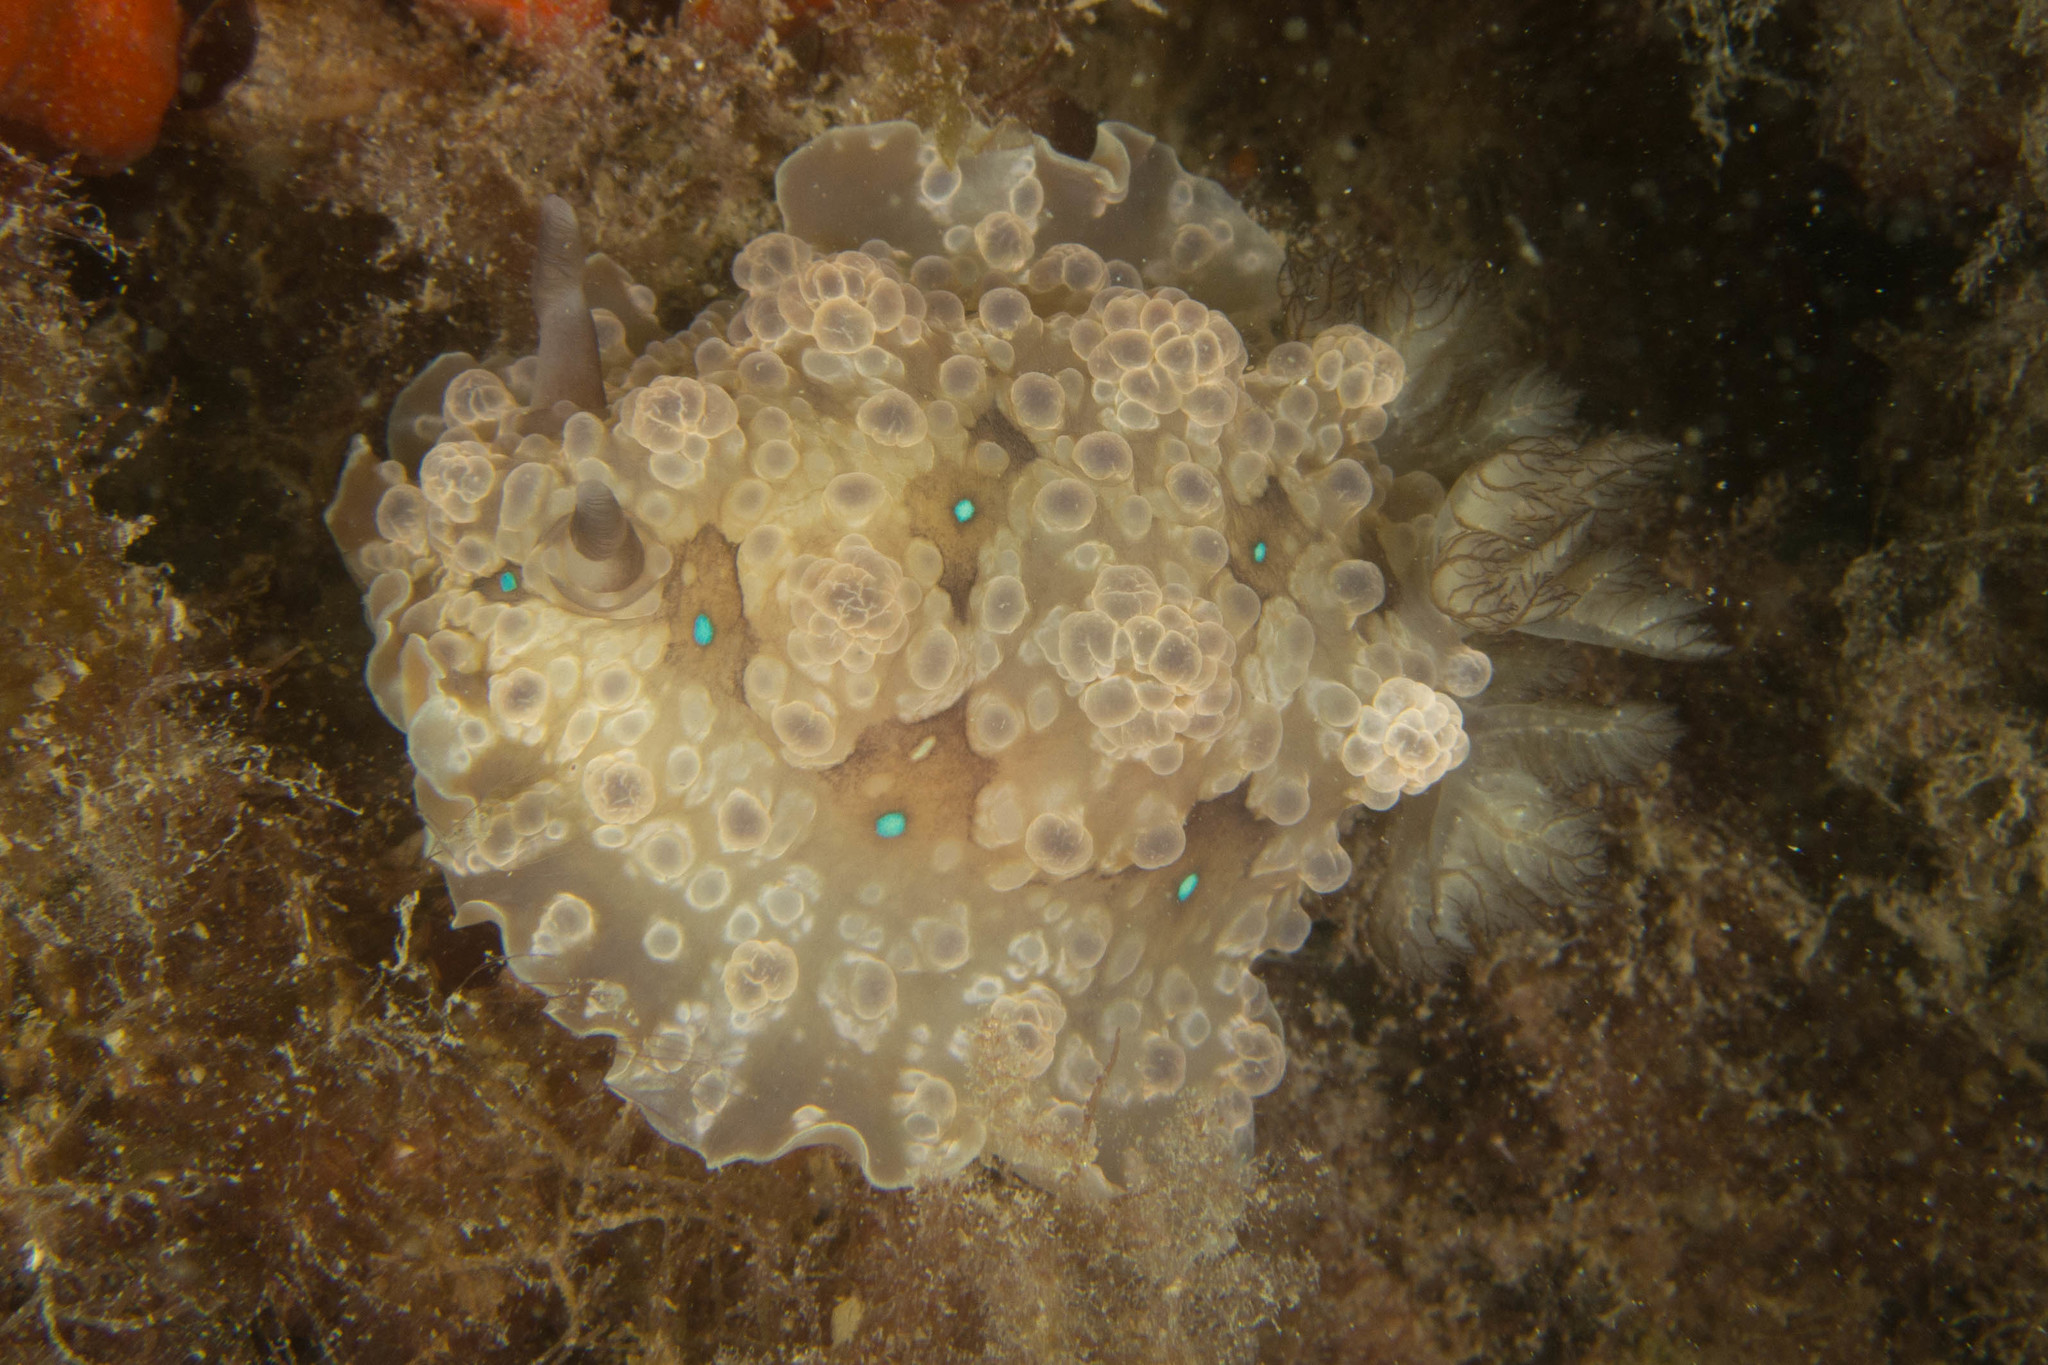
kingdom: Animalia
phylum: Mollusca
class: Gastropoda
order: Nudibranchia
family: Dendrodorididae
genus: Dendrodoris
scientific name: Dendrodoris krusensternii
